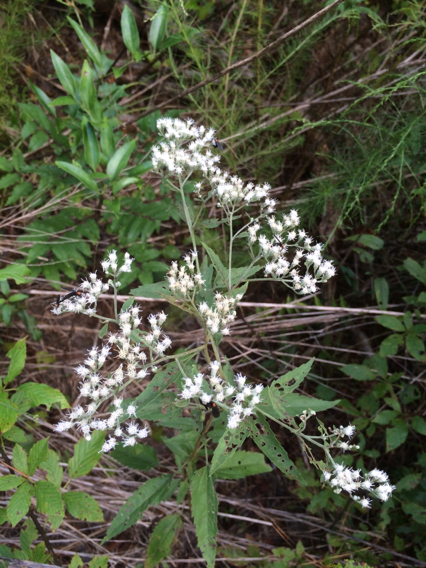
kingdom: Plantae
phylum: Tracheophyta
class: Magnoliopsida
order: Asterales
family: Asteraceae
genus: Eupatorium
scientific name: Eupatorium serotinum
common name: Late boneset
